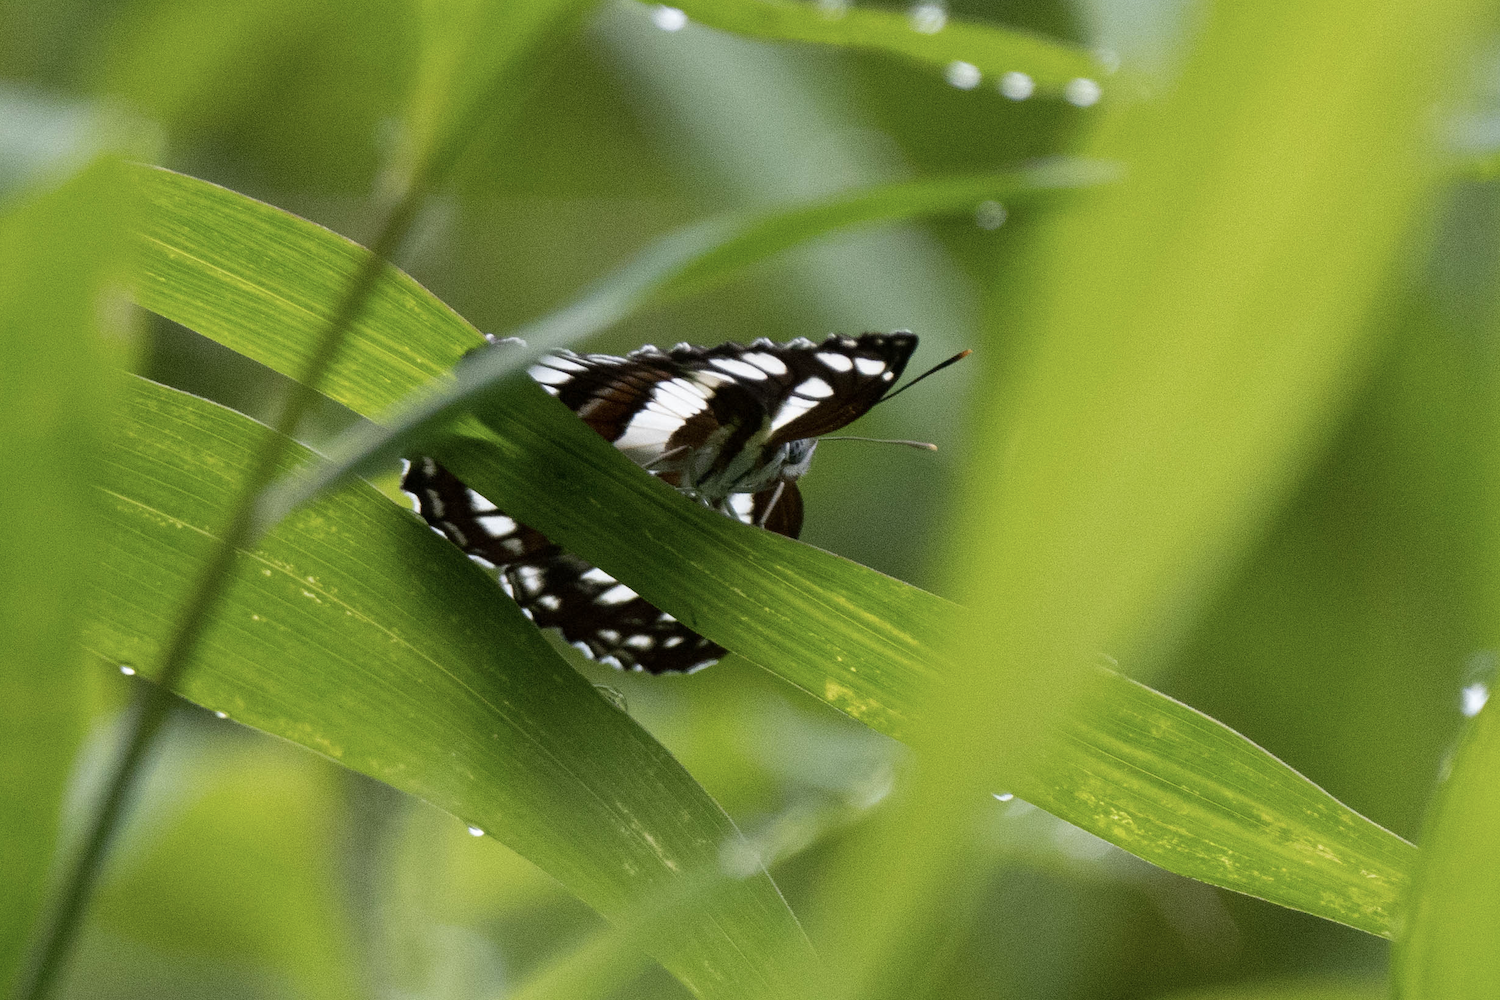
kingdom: Animalia
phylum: Arthropoda
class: Insecta
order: Lepidoptera
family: Nymphalidae
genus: Neptis
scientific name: Neptis hylas
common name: Common sailer
